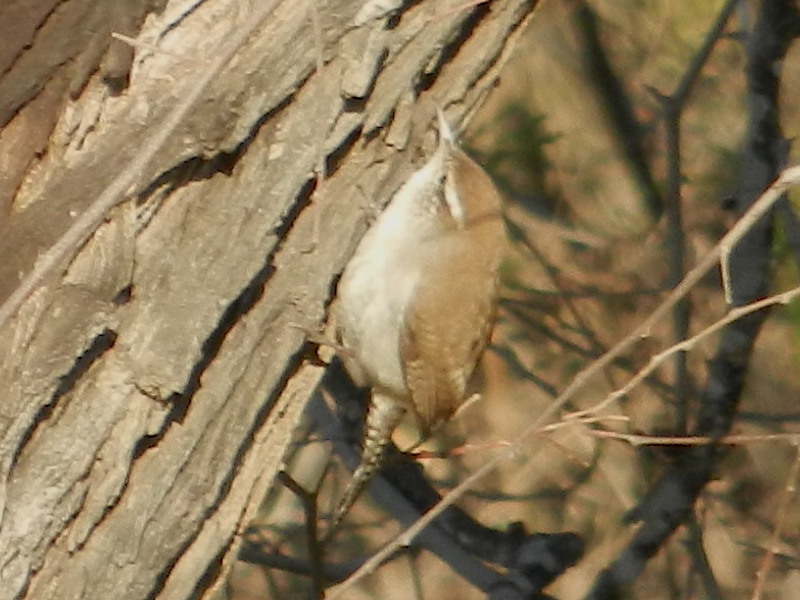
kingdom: Animalia
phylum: Chordata
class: Aves
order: Passeriformes
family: Troglodytidae
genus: Thryomanes
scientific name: Thryomanes bewickii
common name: Bewick's wren
